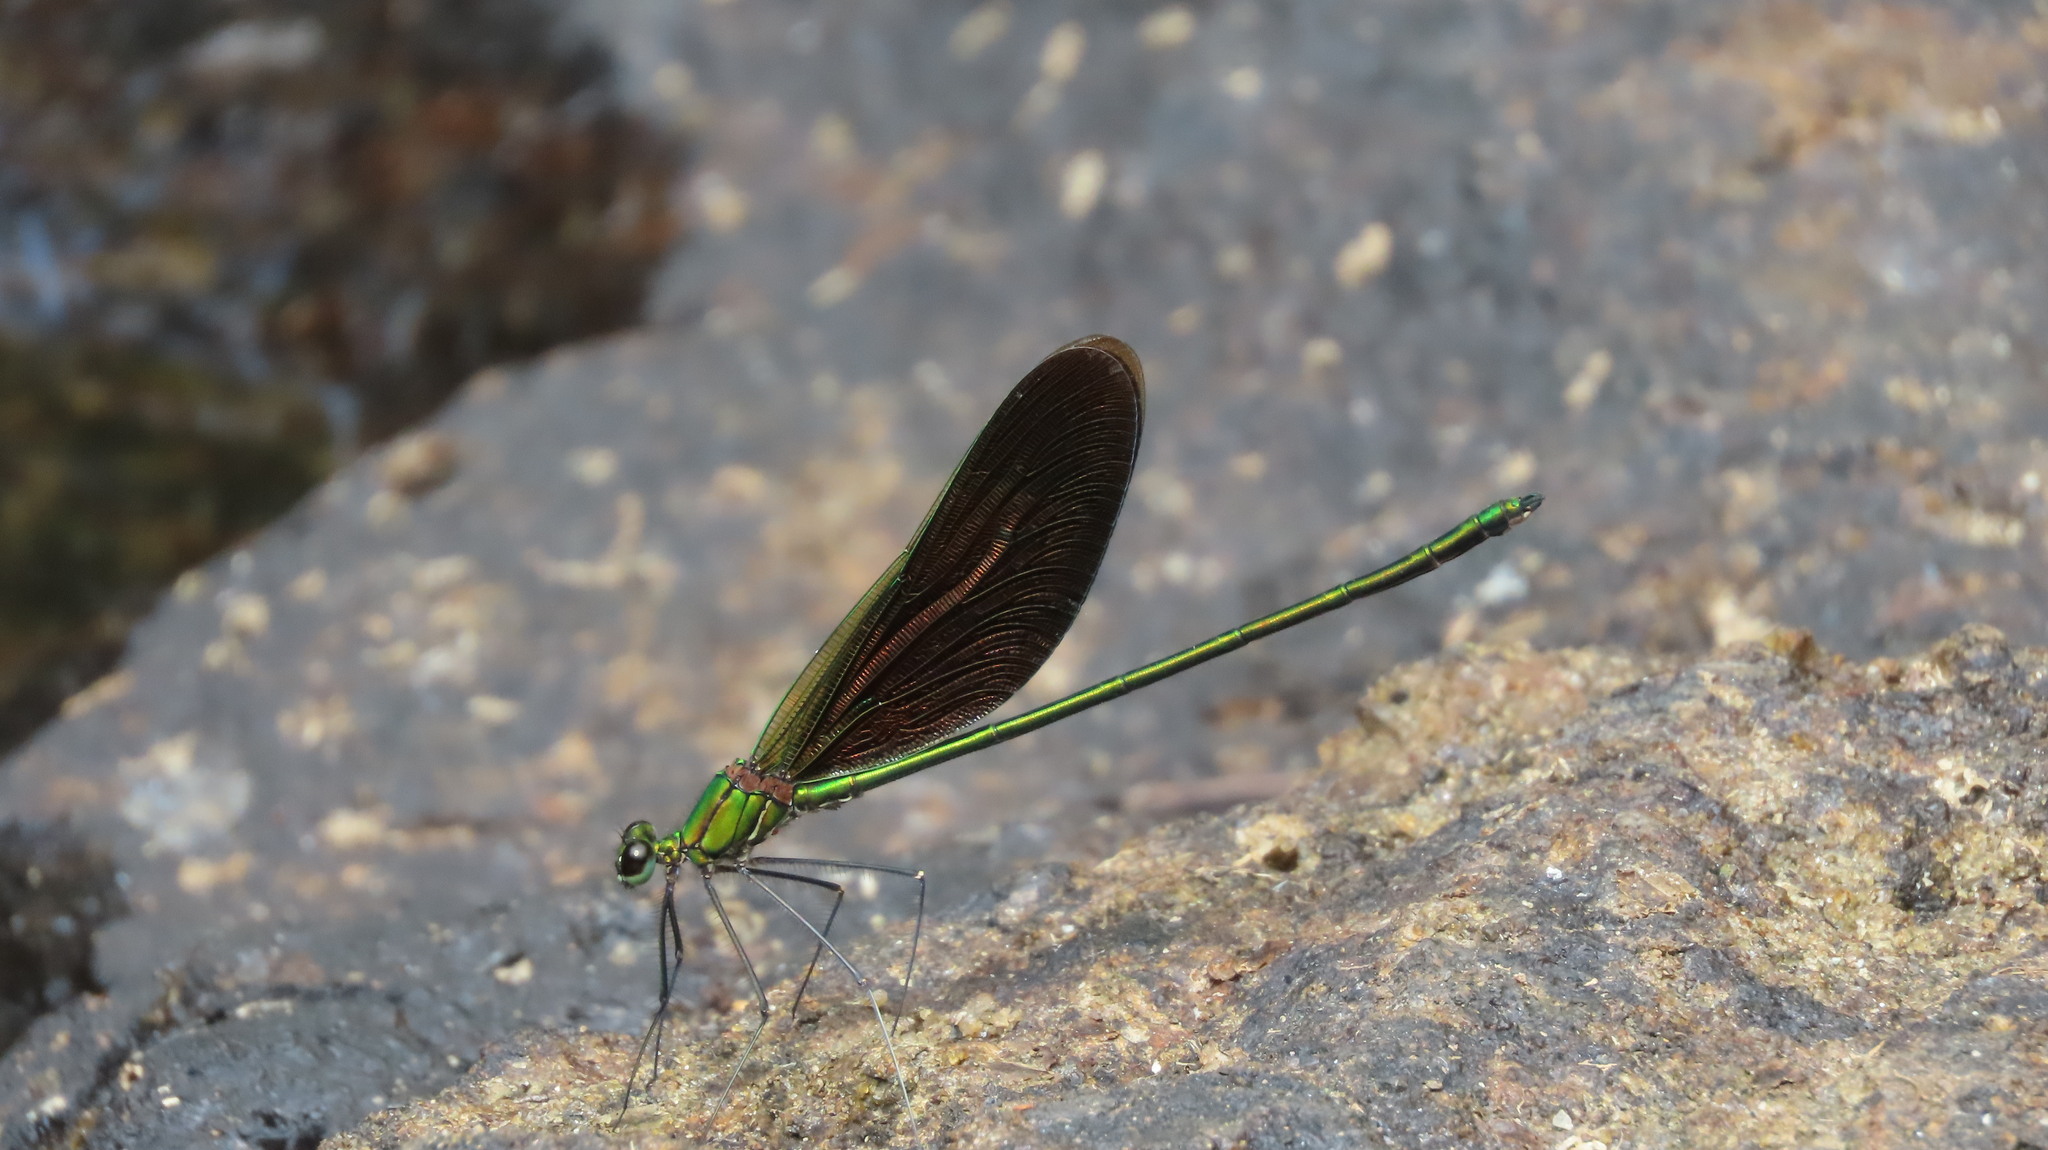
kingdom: Animalia
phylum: Arthropoda
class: Insecta
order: Odonata
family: Calopterygidae
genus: Neurobasis
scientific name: Neurobasis chinensis
